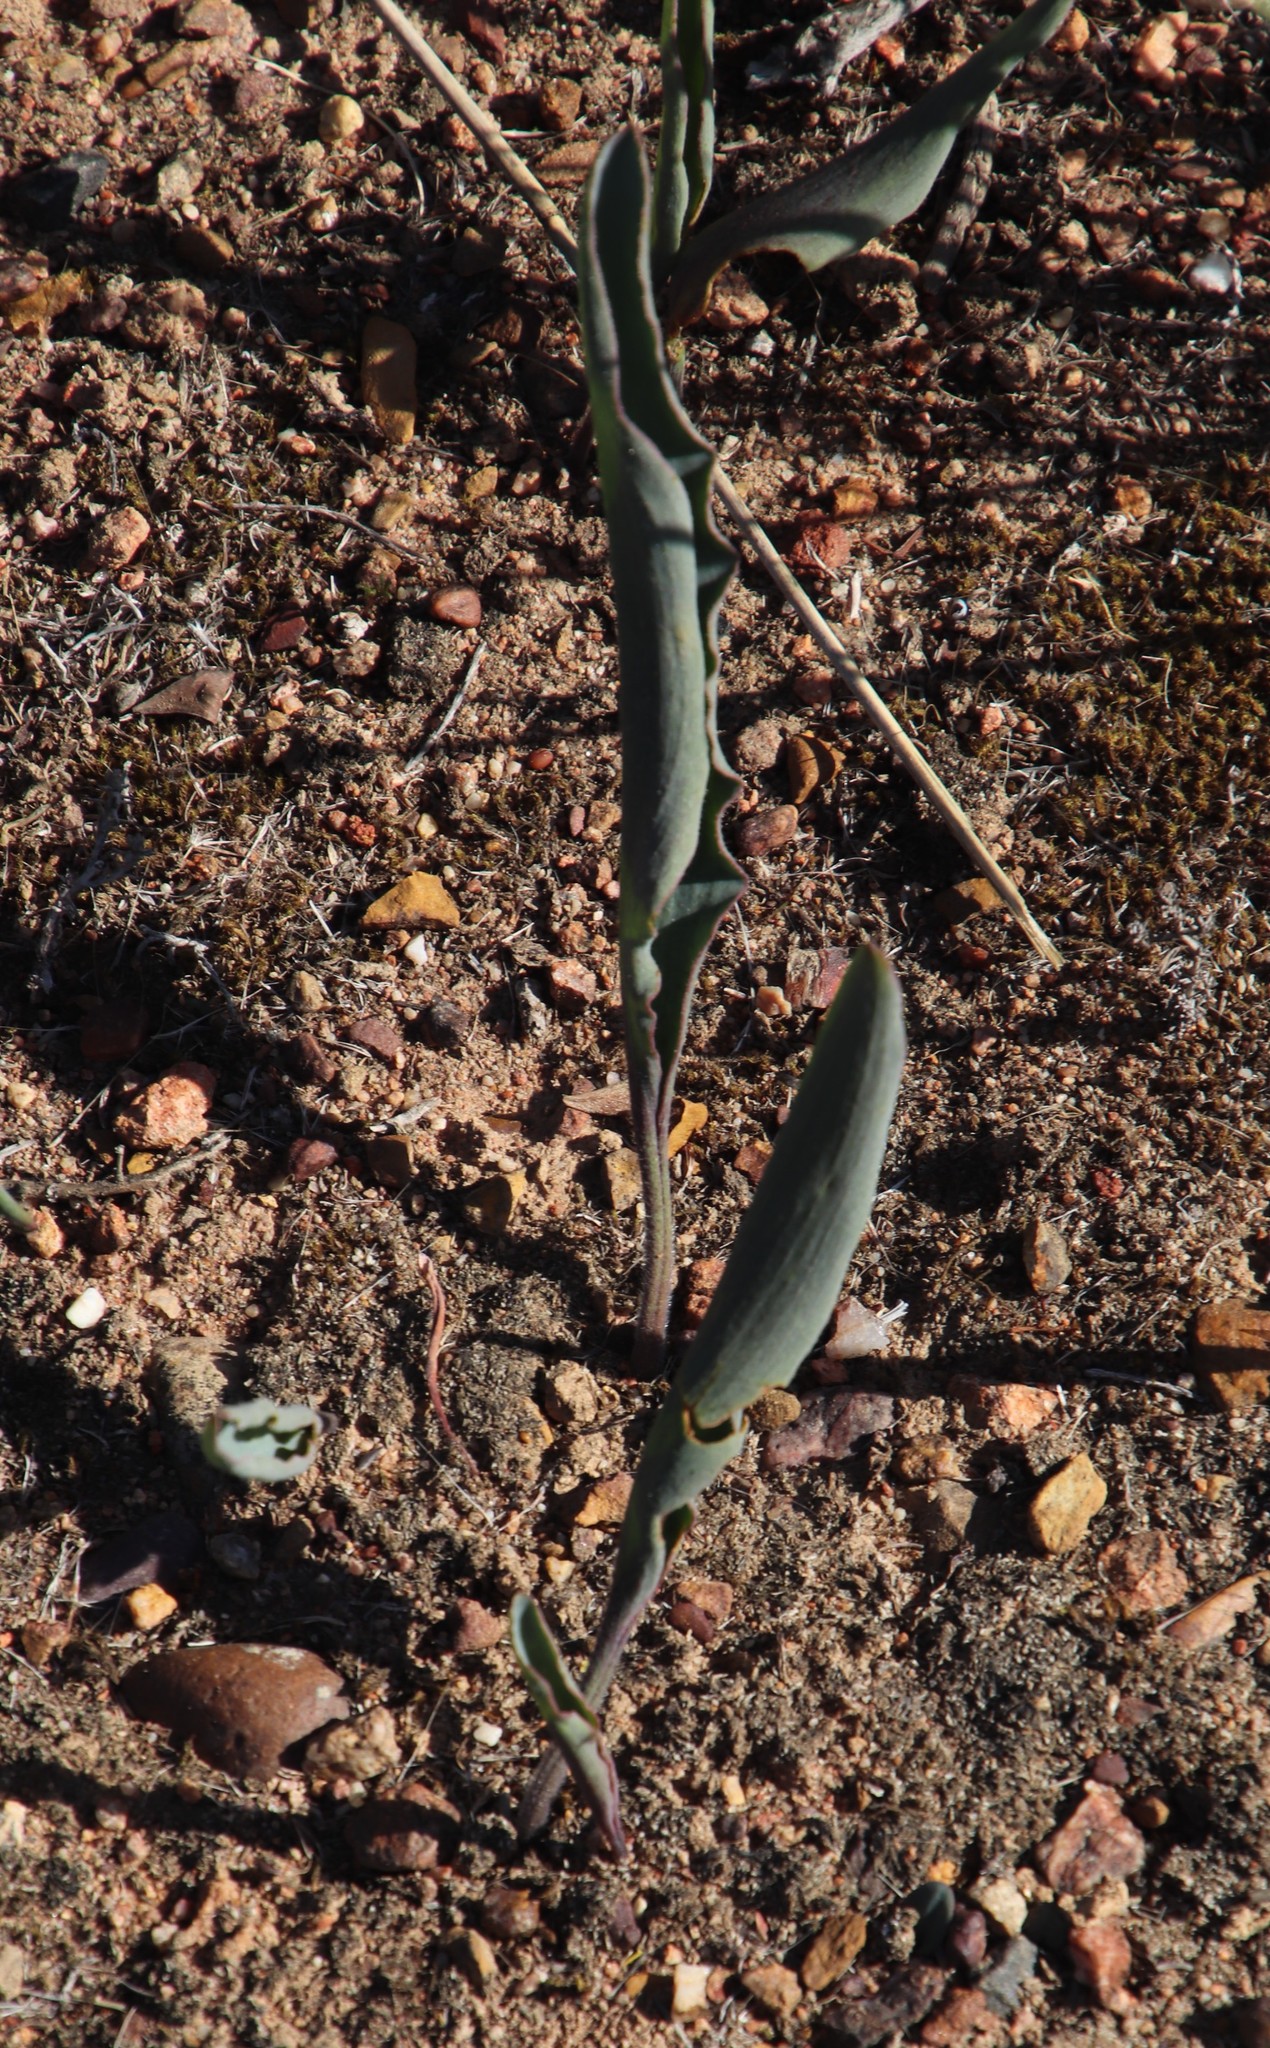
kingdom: Plantae
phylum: Tracheophyta
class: Liliopsida
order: Asparagales
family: Asparagaceae
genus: Eriospermum
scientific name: Eriospermum lanceifolium
